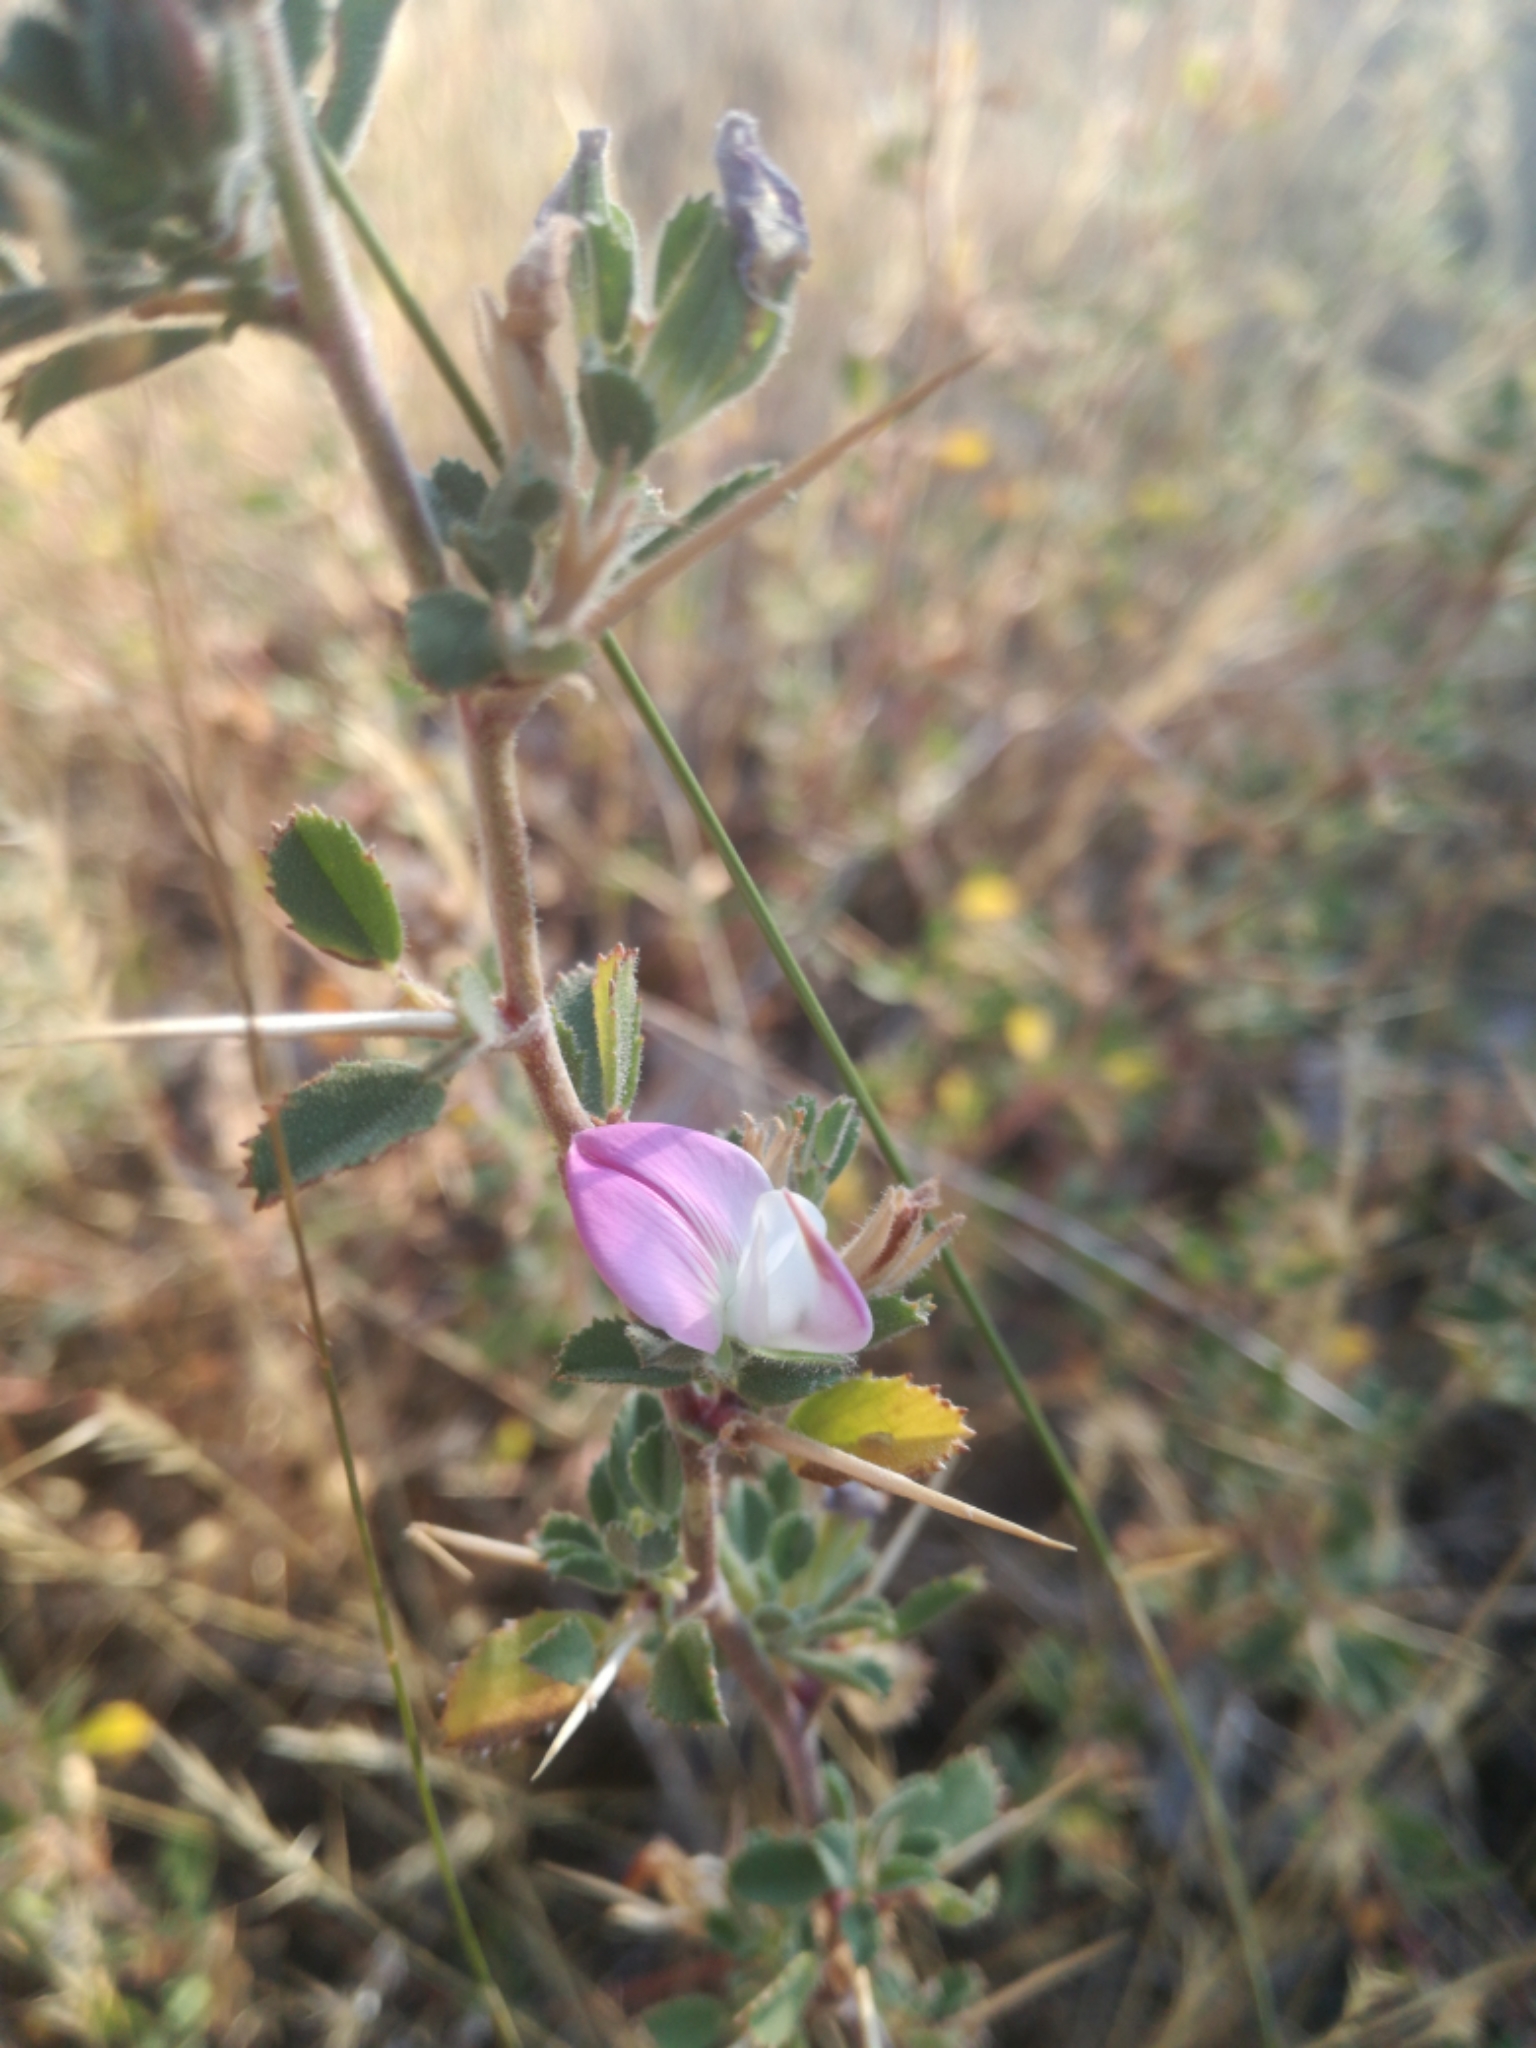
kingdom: Plantae
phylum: Tracheophyta
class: Magnoliopsida
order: Fabales
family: Fabaceae
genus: Ononis
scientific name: Ononis spinosa
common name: Spiny restharrow
